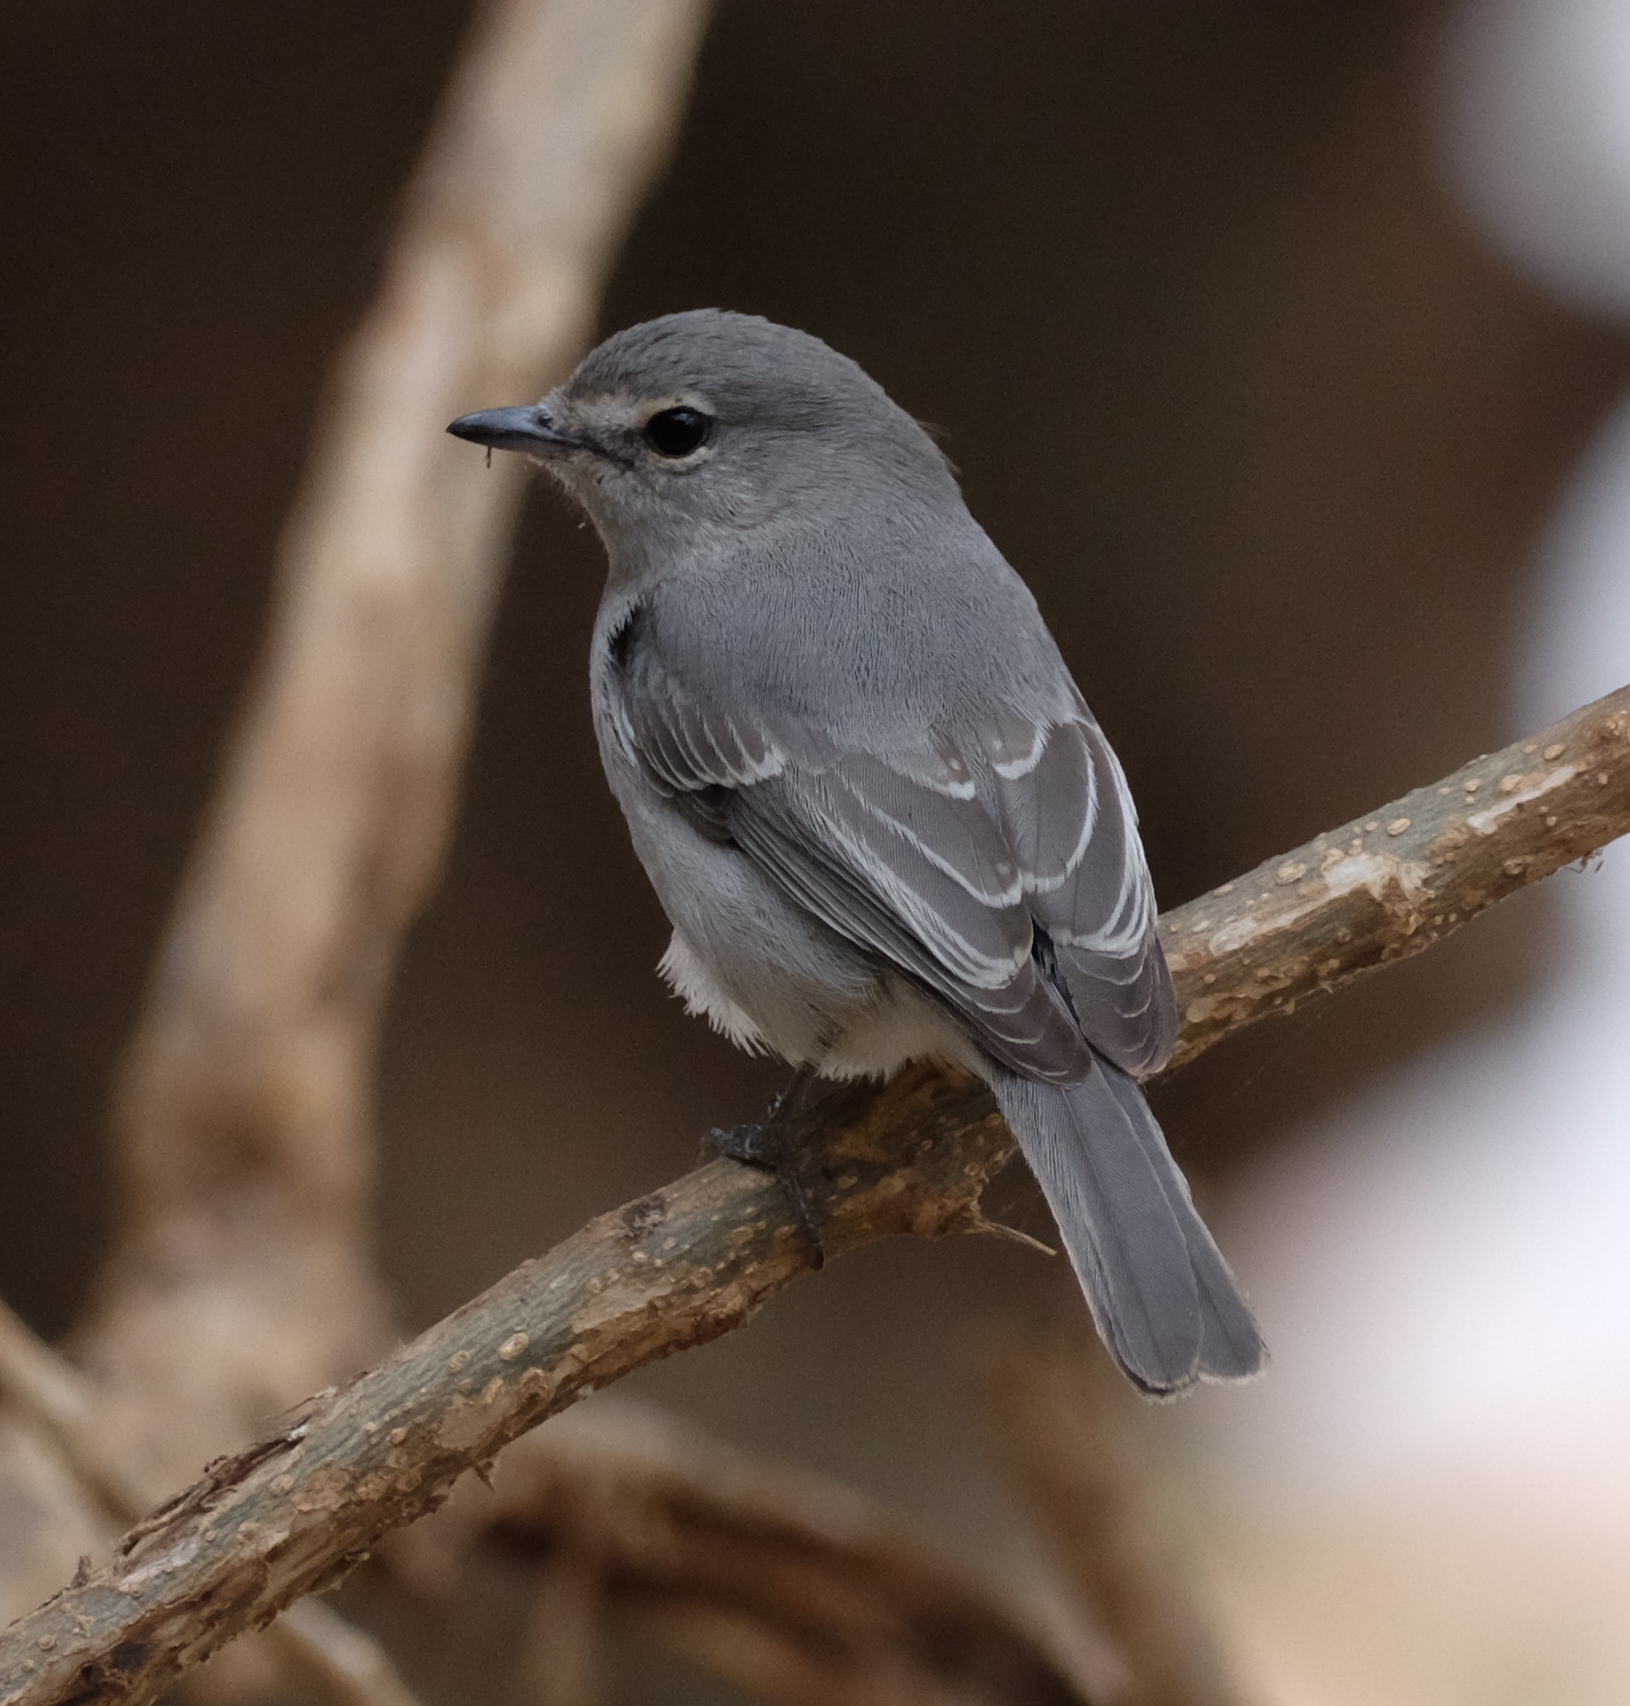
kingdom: Animalia
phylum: Chordata
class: Aves
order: Passeriformes
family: Muscicapidae
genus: Muscicapa
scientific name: Muscicapa caerulescens
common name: Ashy flycatcher
